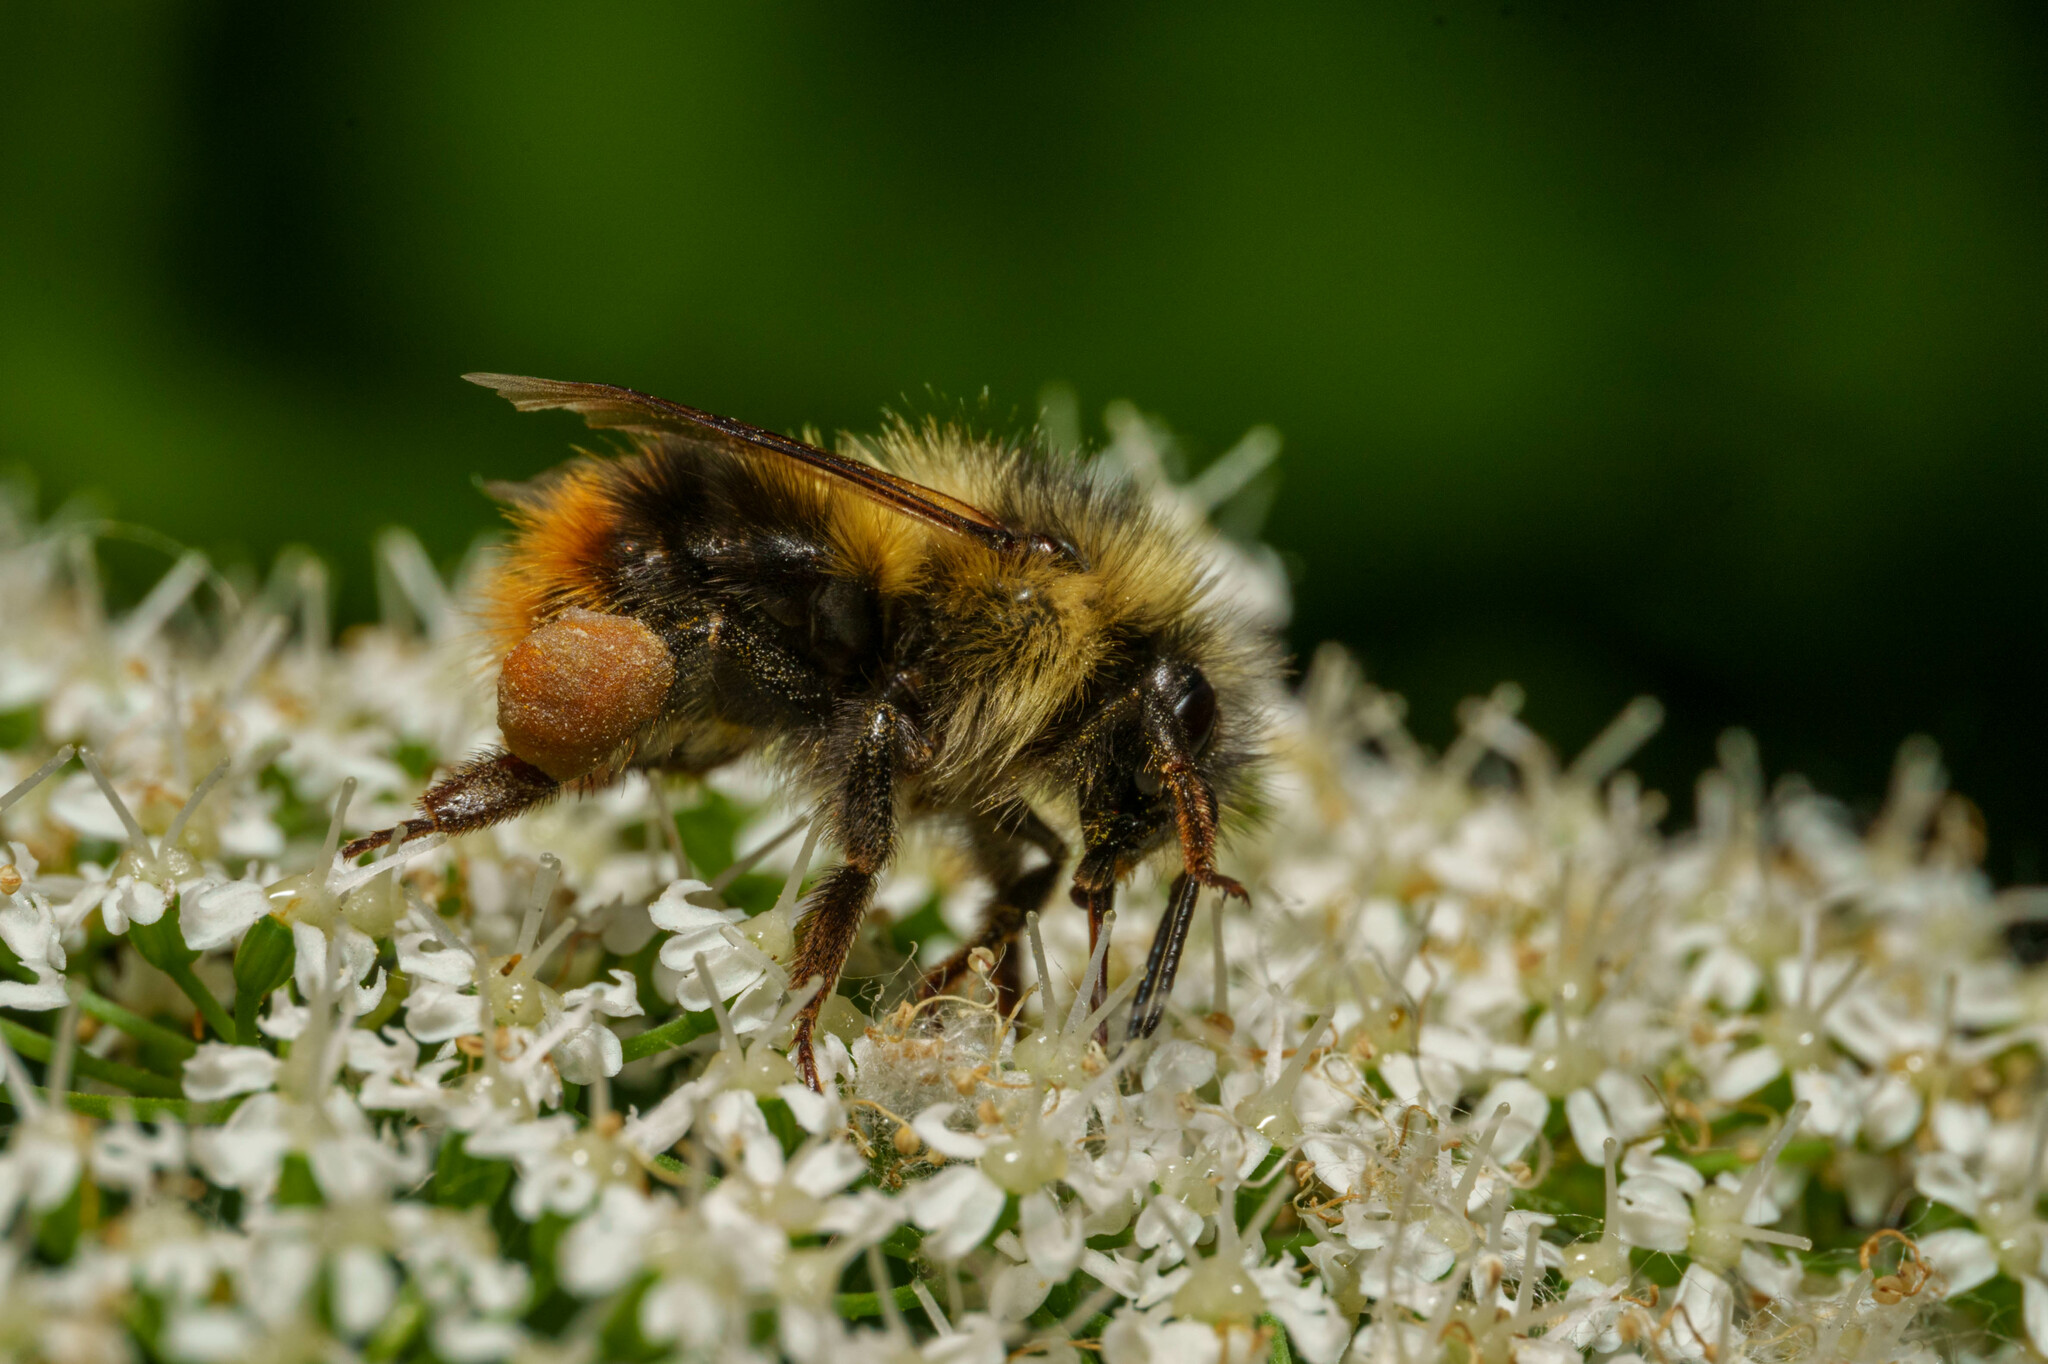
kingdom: Animalia
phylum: Arthropoda
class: Insecta
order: Hymenoptera
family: Apidae
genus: Bombus
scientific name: Bombus mixtus
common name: Fuzzy-horned bumble bee
